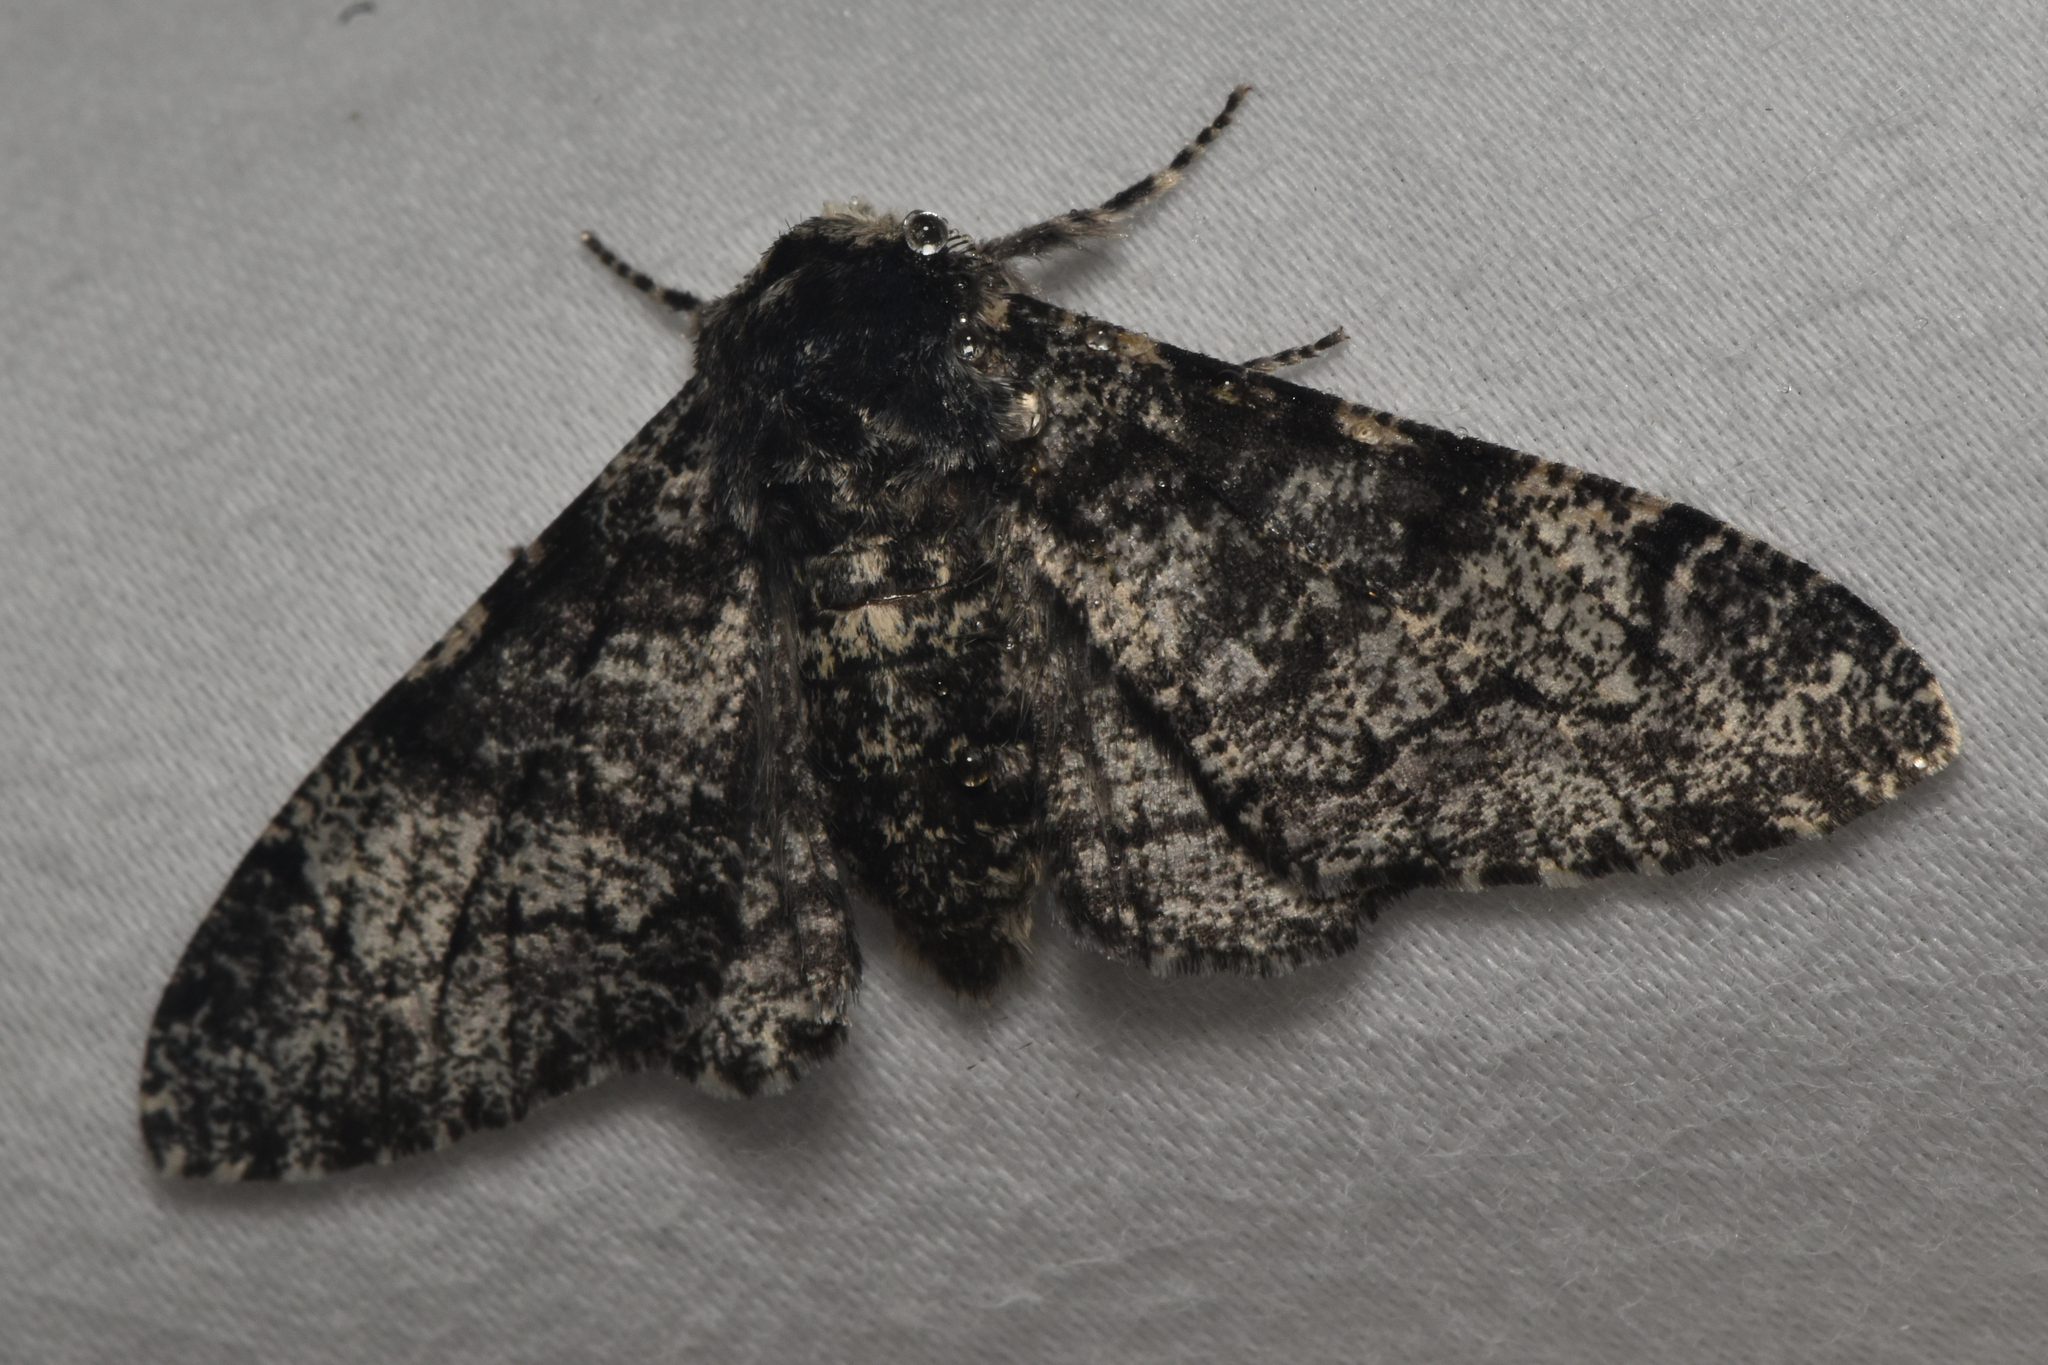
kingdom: Animalia
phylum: Arthropoda
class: Insecta
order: Lepidoptera
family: Geometridae
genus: Biston
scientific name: Biston betularia
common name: Peppered moth
